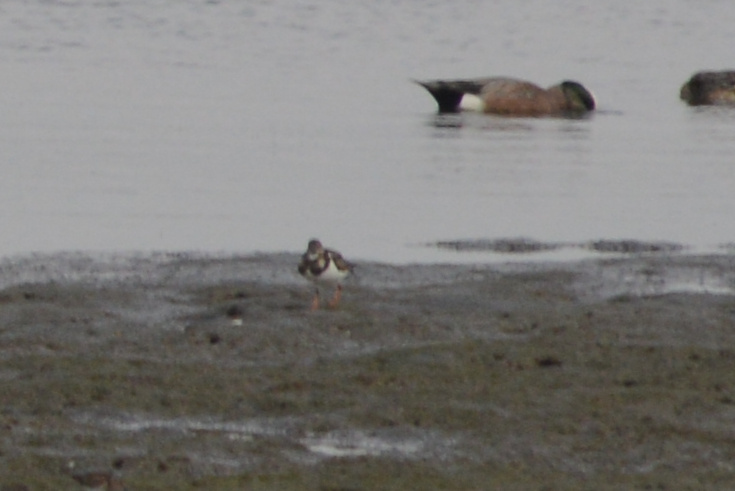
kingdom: Animalia
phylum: Chordata
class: Aves
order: Charadriiformes
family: Scolopacidae
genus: Arenaria
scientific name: Arenaria interpres
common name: Ruddy turnstone
